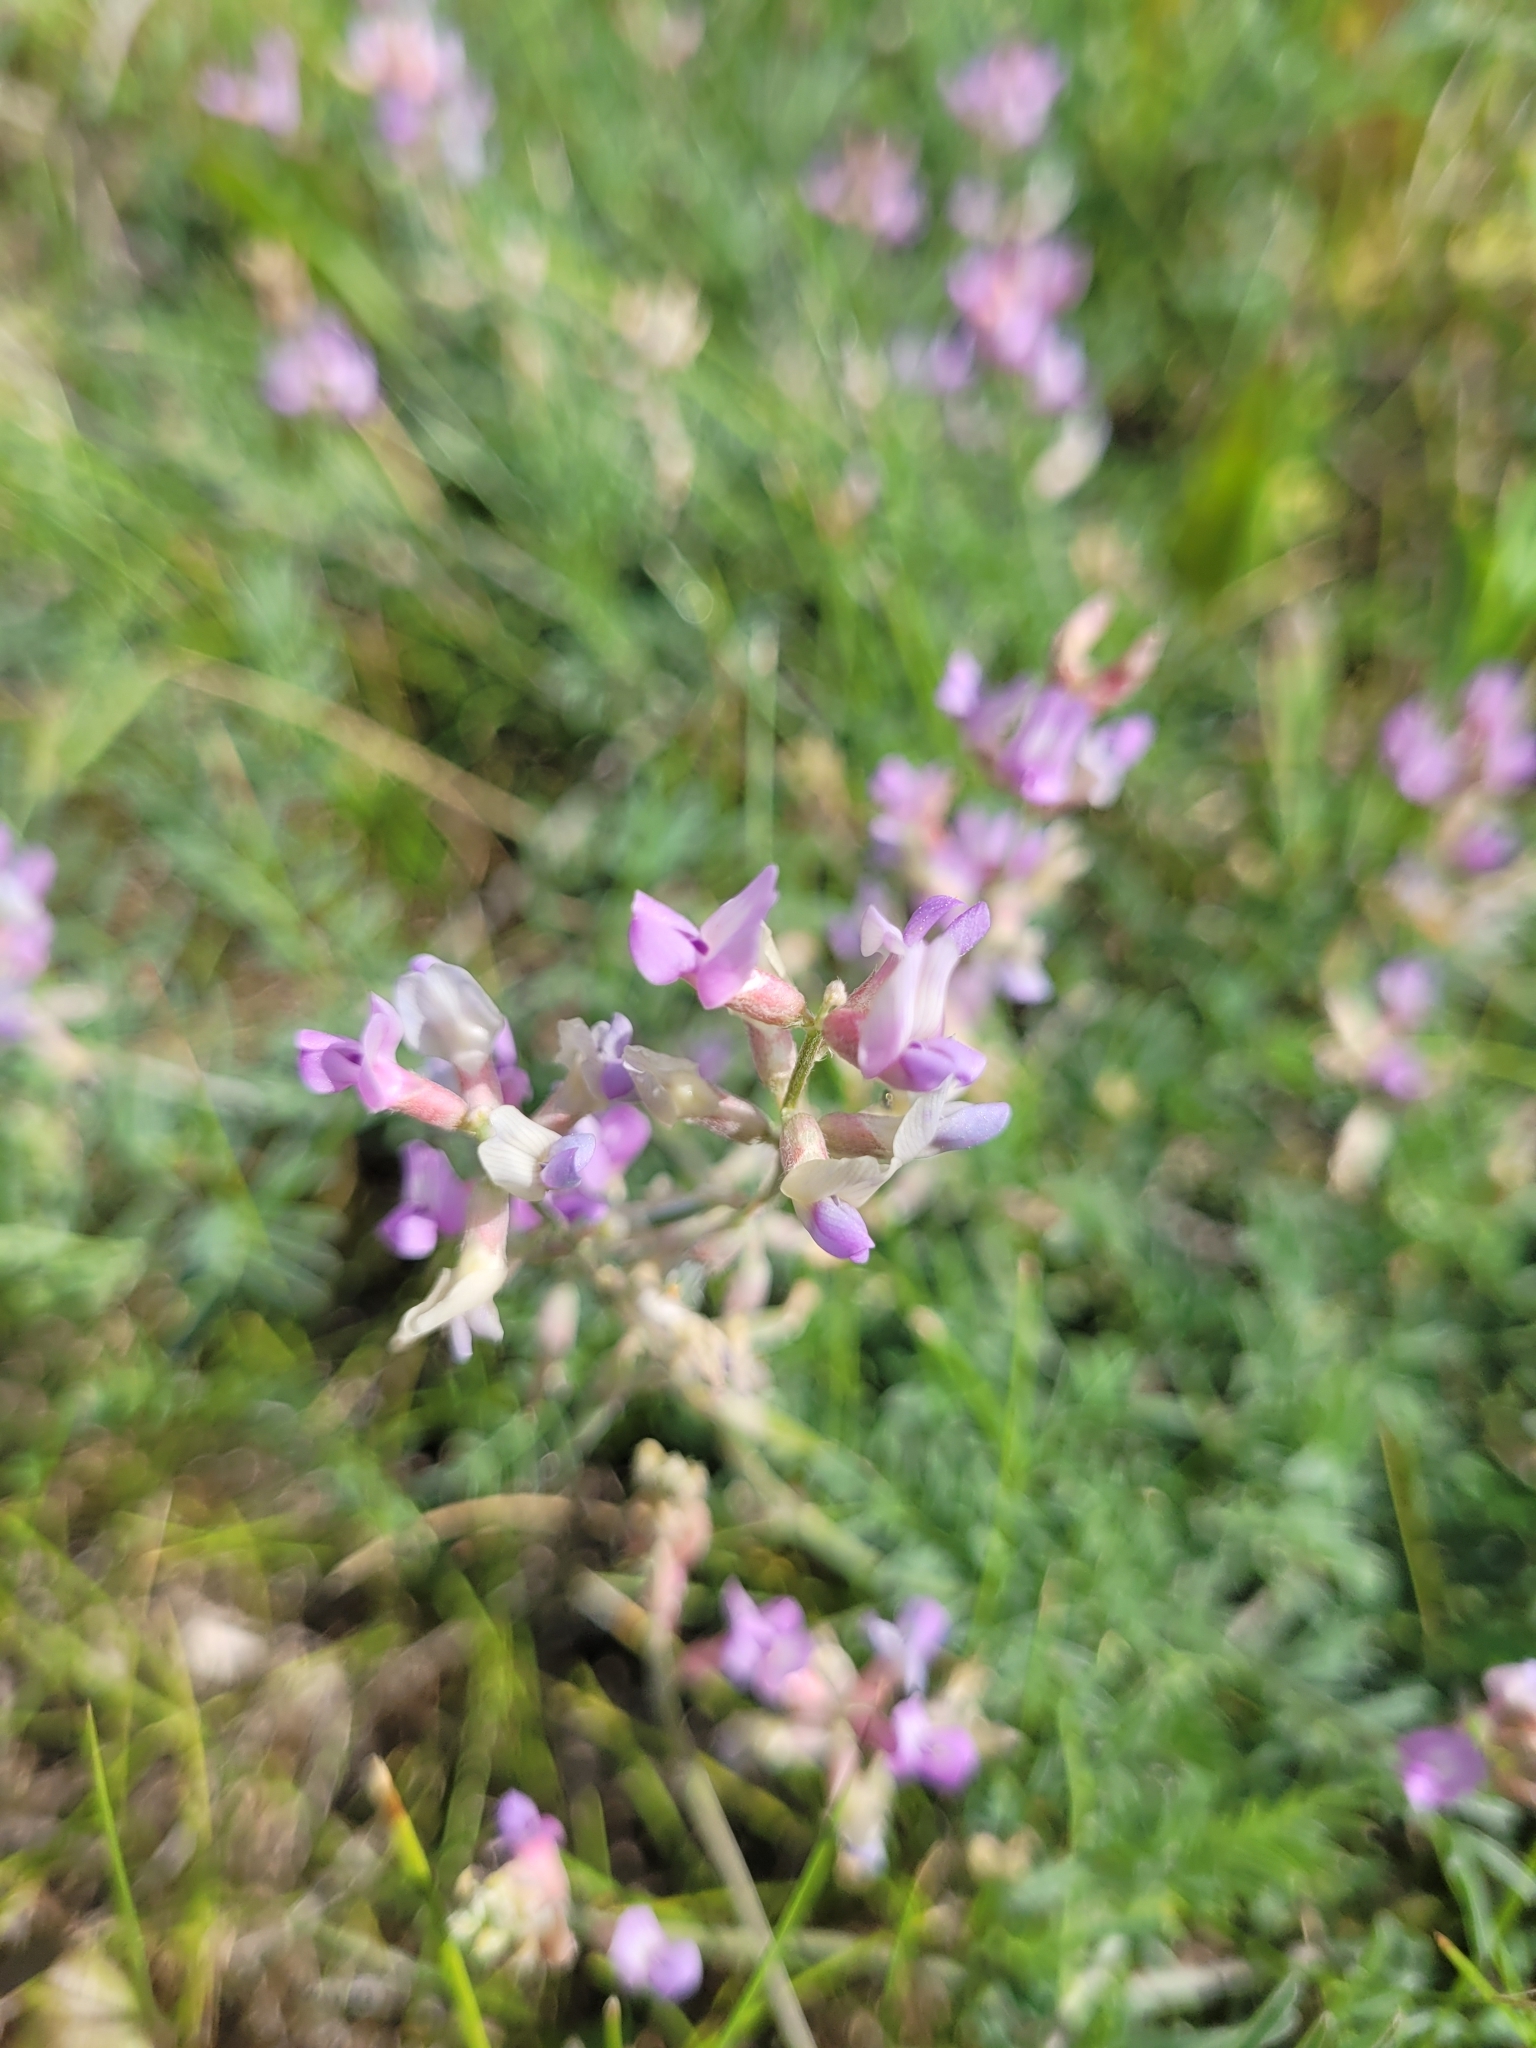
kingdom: Plantae
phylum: Tracheophyta
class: Magnoliopsida
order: Fabales
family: Fabaceae
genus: Astragalus
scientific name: Astragalus flexuosus
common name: Pliant milk-vetch
